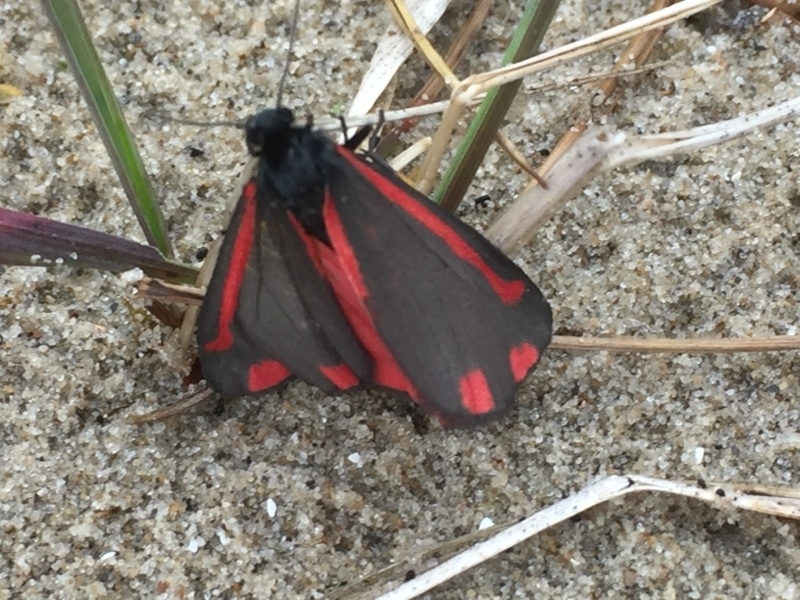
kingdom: Animalia
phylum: Arthropoda
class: Insecta
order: Lepidoptera
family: Erebidae
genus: Tyria
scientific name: Tyria jacobaeae
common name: Cinnabar
